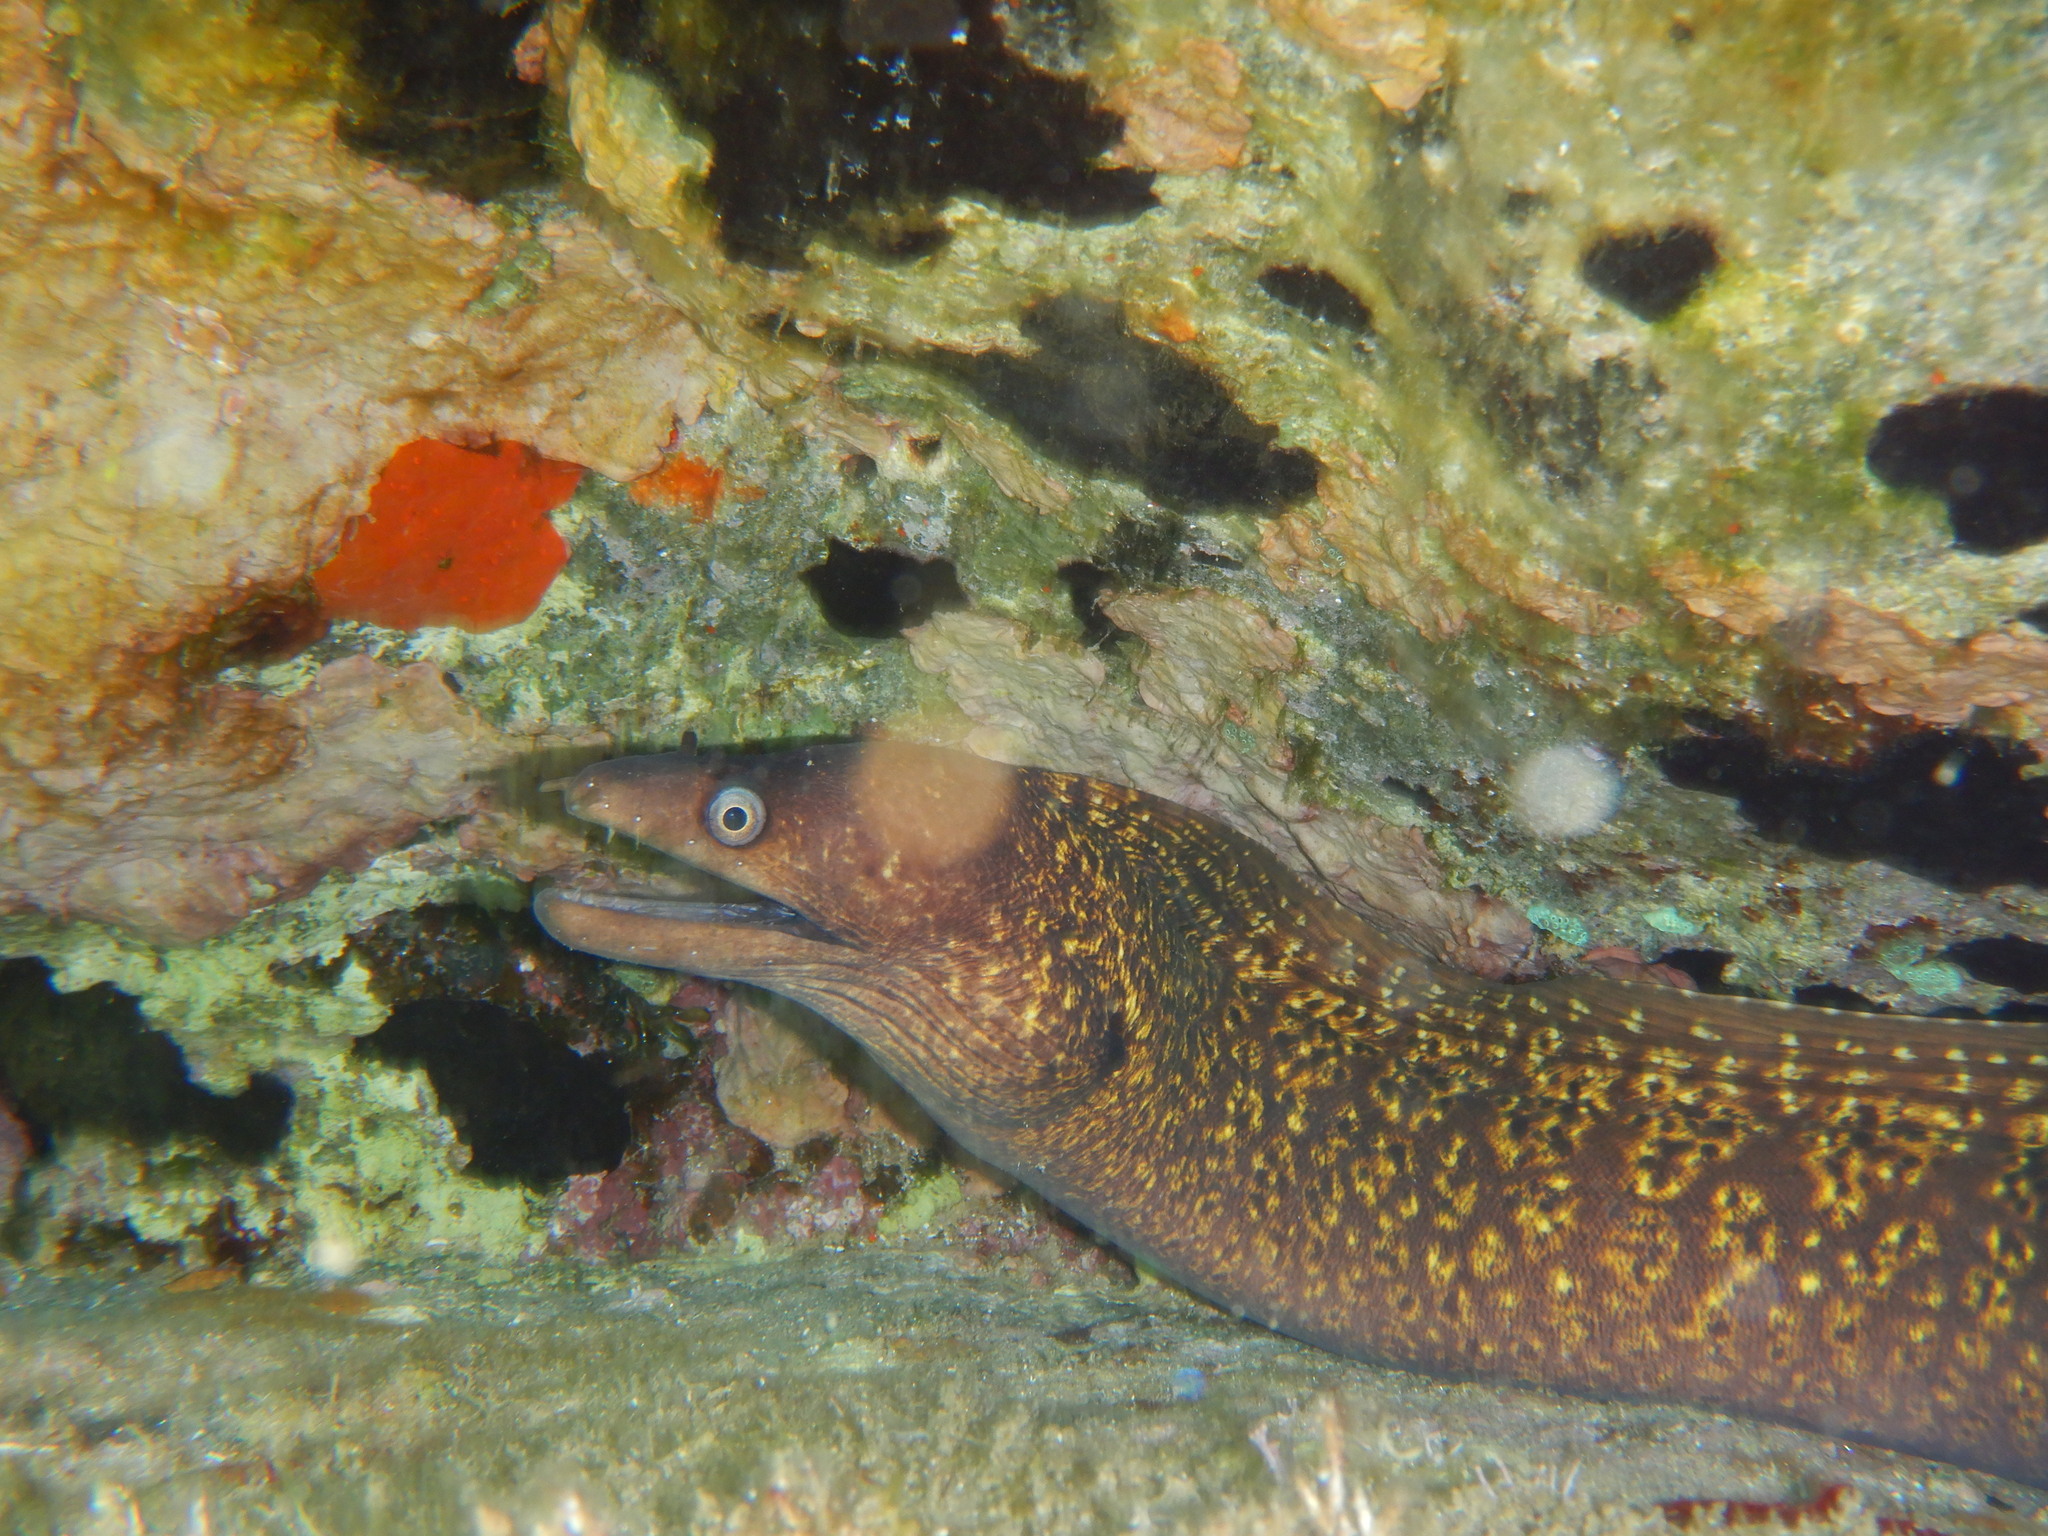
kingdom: Animalia
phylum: Chordata
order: Anguilliformes
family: Muraenidae
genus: Muraena
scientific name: Muraena helena
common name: Mediterranean moray
